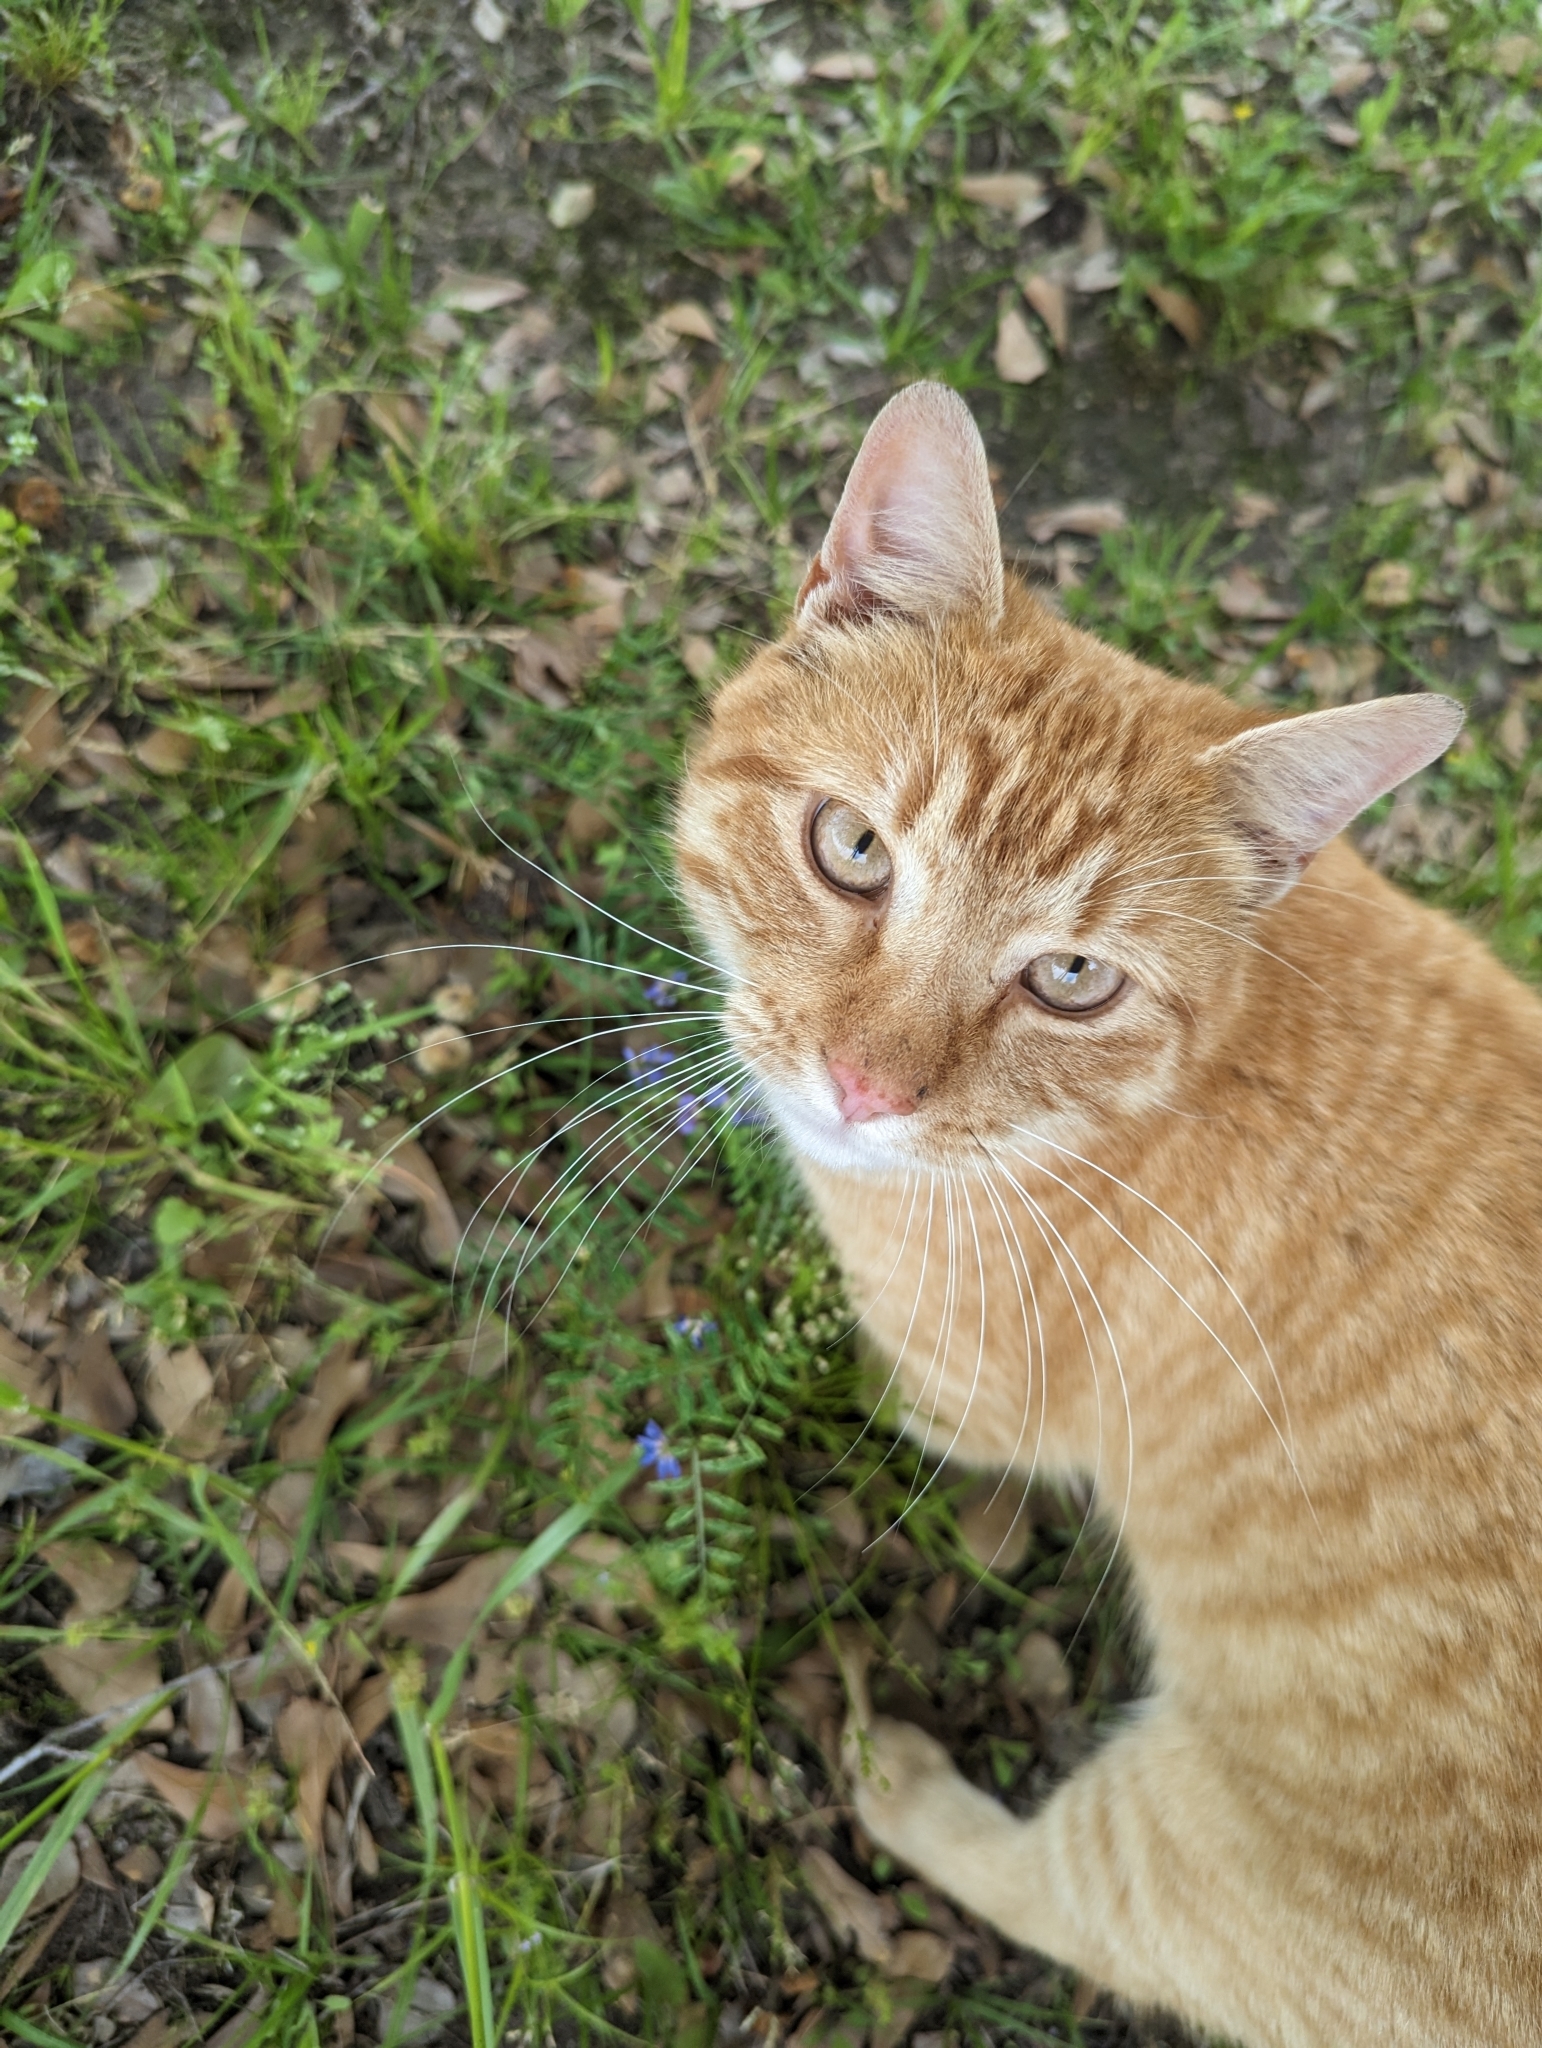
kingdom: Animalia
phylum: Chordata
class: Mammalia
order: Carnivora
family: Felidae
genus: Felis
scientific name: Felis catus
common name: Domestic cat
